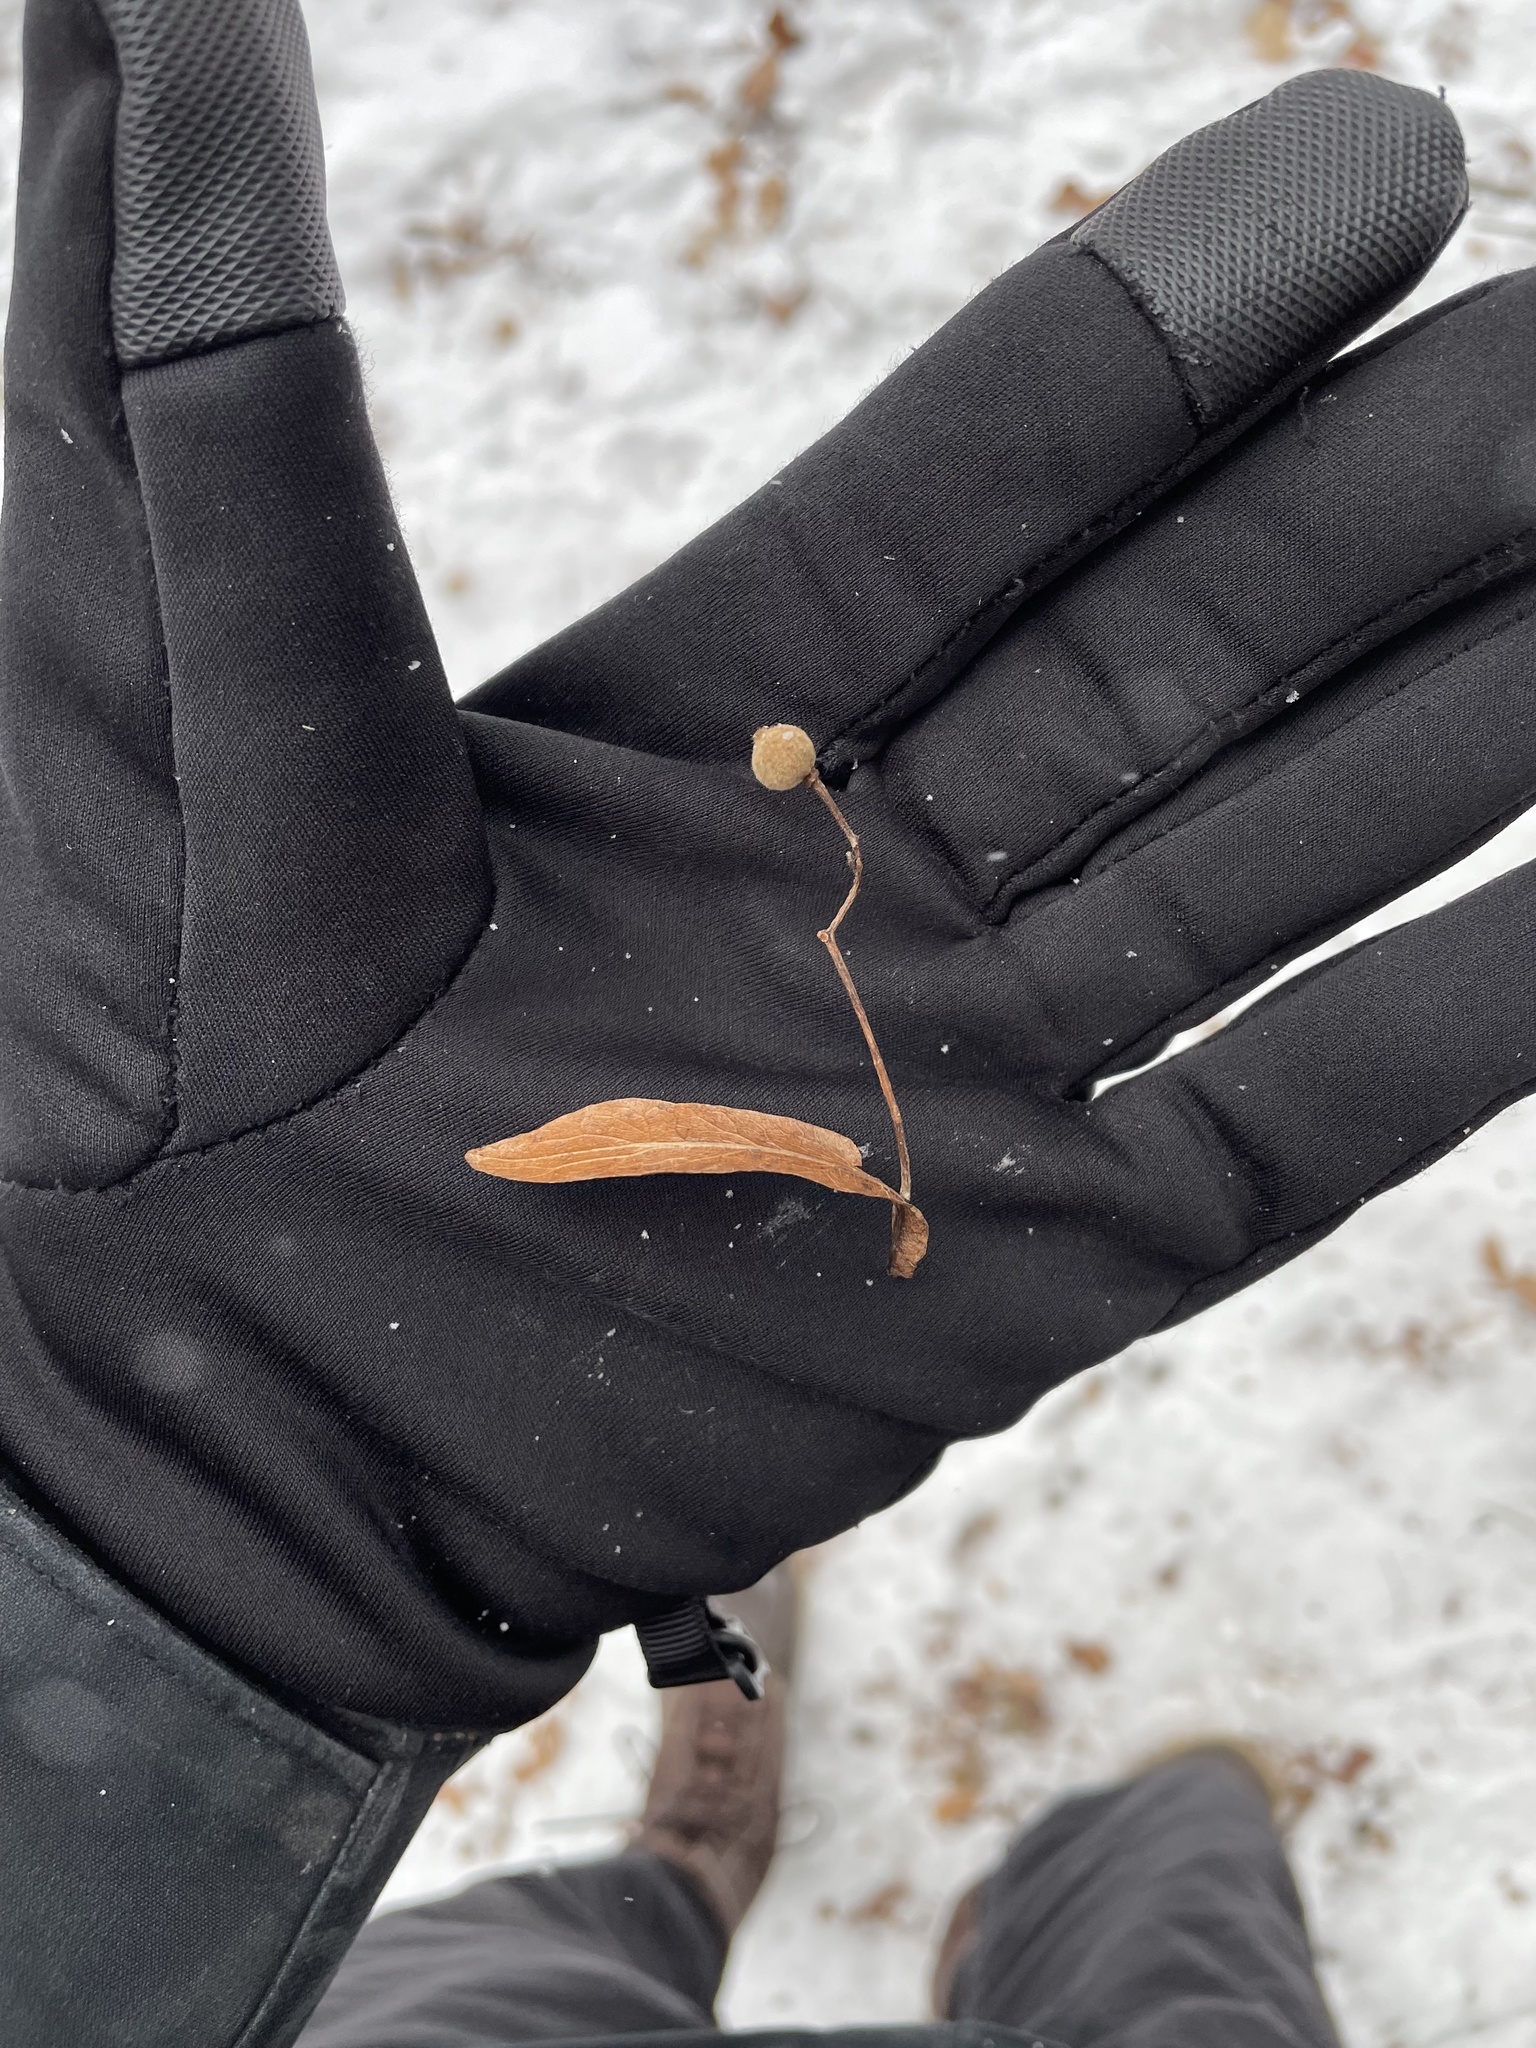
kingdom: Plantae
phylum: Tracheophyta
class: Magnoliopsida
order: Malvales
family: Malvaceae
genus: Tilia
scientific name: Tilia americana
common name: Basswood
